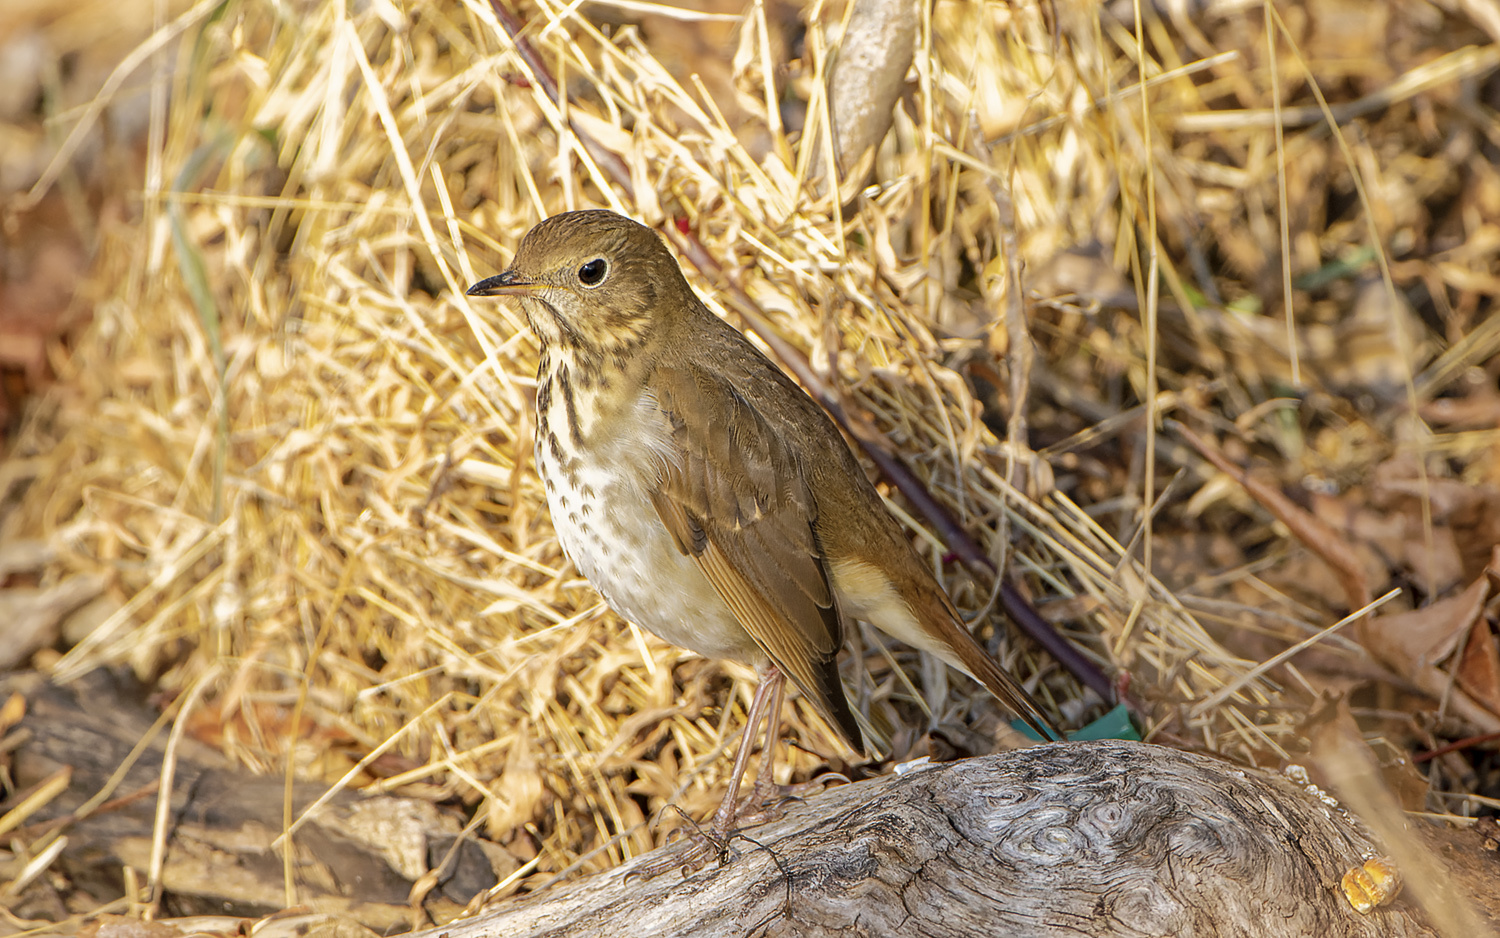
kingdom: Animalia
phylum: Chordata
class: Aves
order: Passeriformes
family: Turdidae
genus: Catharus
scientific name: Catharus guttatus
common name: Hermit thrush
